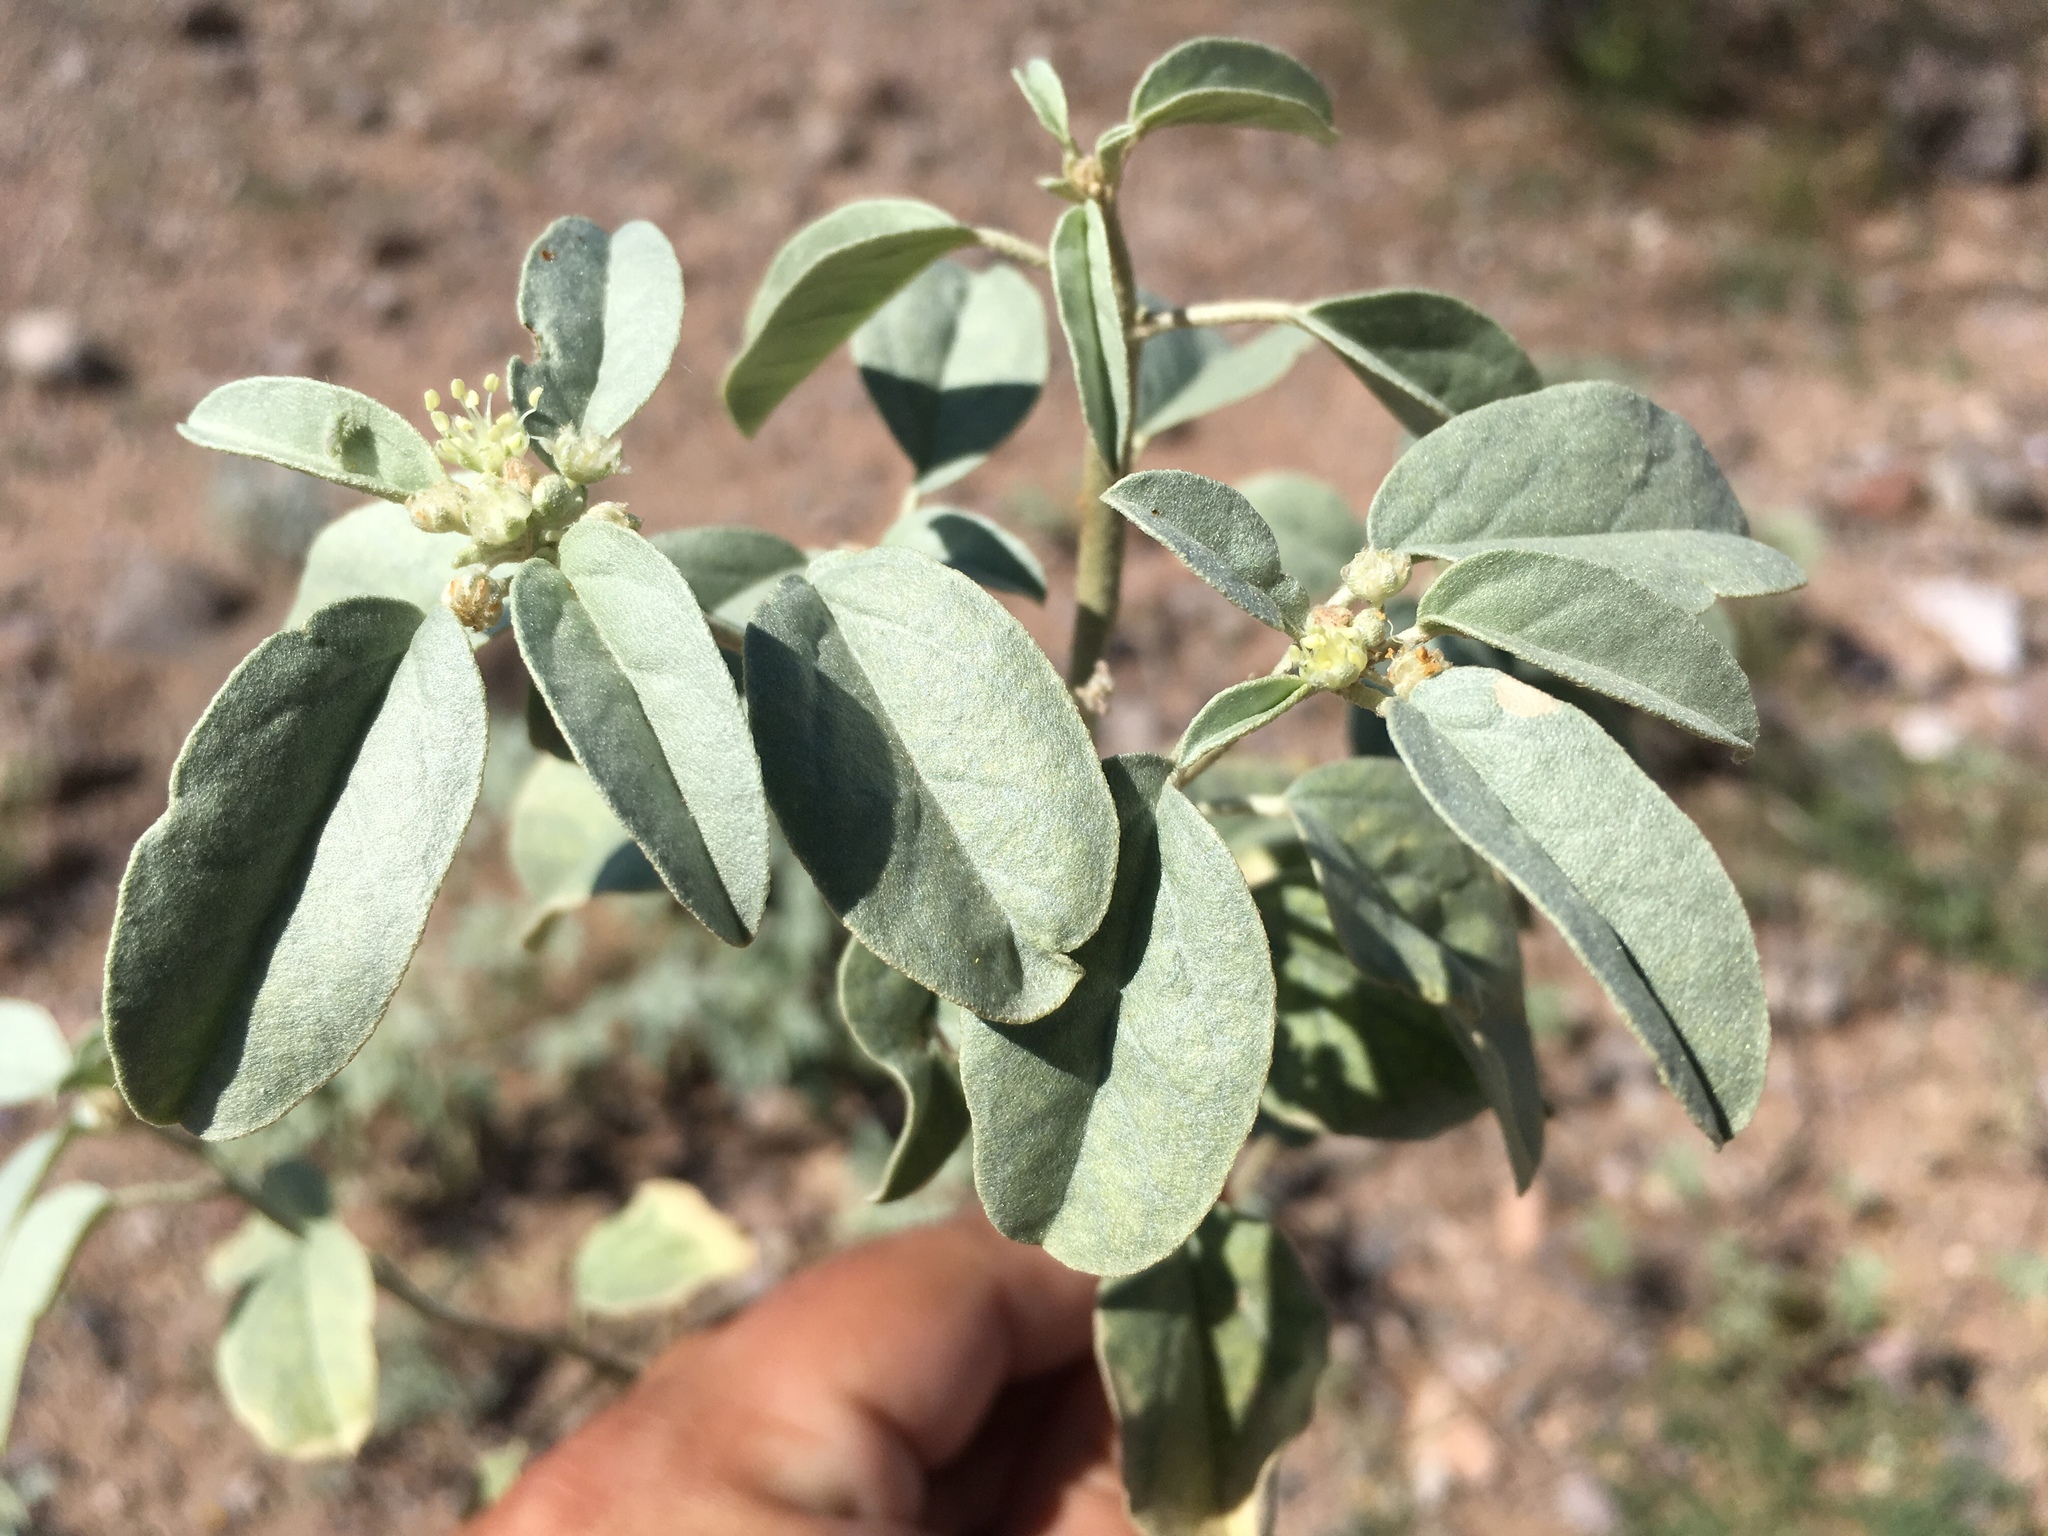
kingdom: Plantae
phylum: Tracheophyta
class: Magnoliopsida
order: Malpighiales
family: Euphorbiaceae
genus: Croton
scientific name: Croton pottsii
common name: Leatherweed
